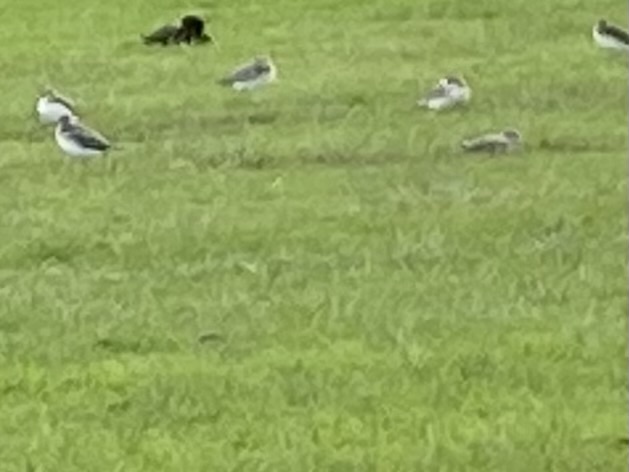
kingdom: Animalia
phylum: Chordata
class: Aves
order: Charadriiformes
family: Charadriidae
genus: Anarhynchus
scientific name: Anarhynchus
